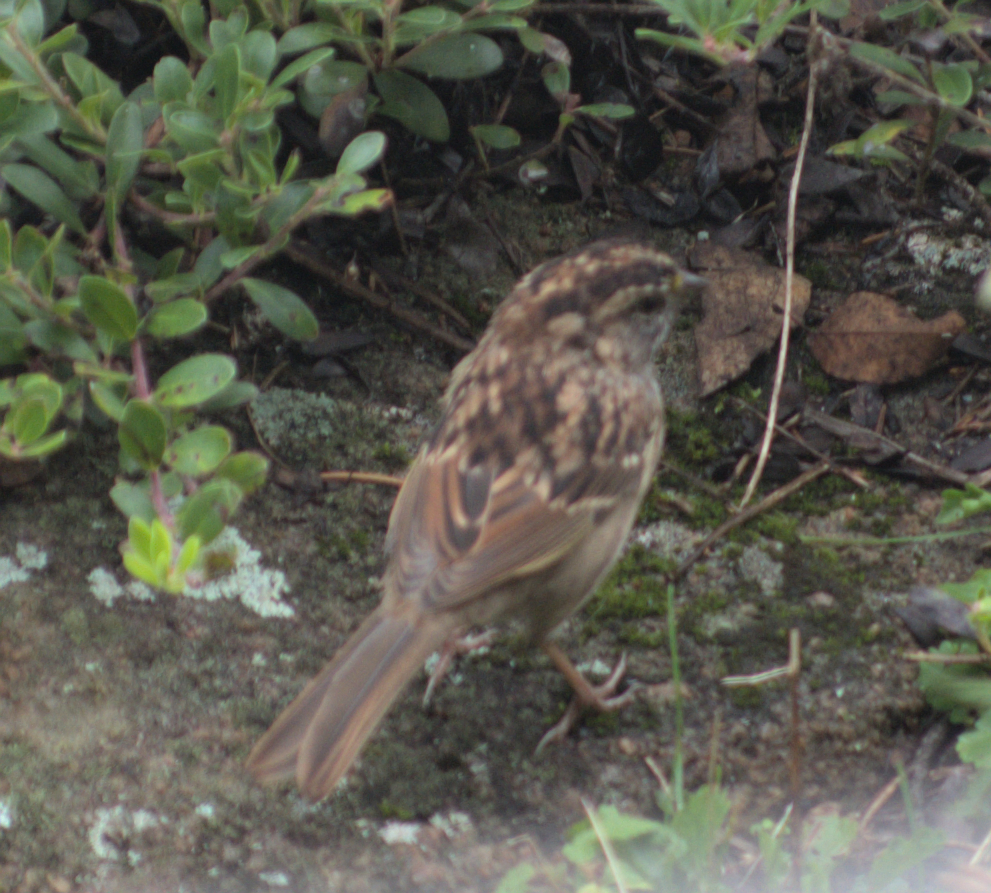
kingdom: Animalia
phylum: Chordata
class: Aves
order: Passeriformes
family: Passerellidae
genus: Zonotrichia
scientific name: Zonotrichia albicollis
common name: White-throated sparrow
